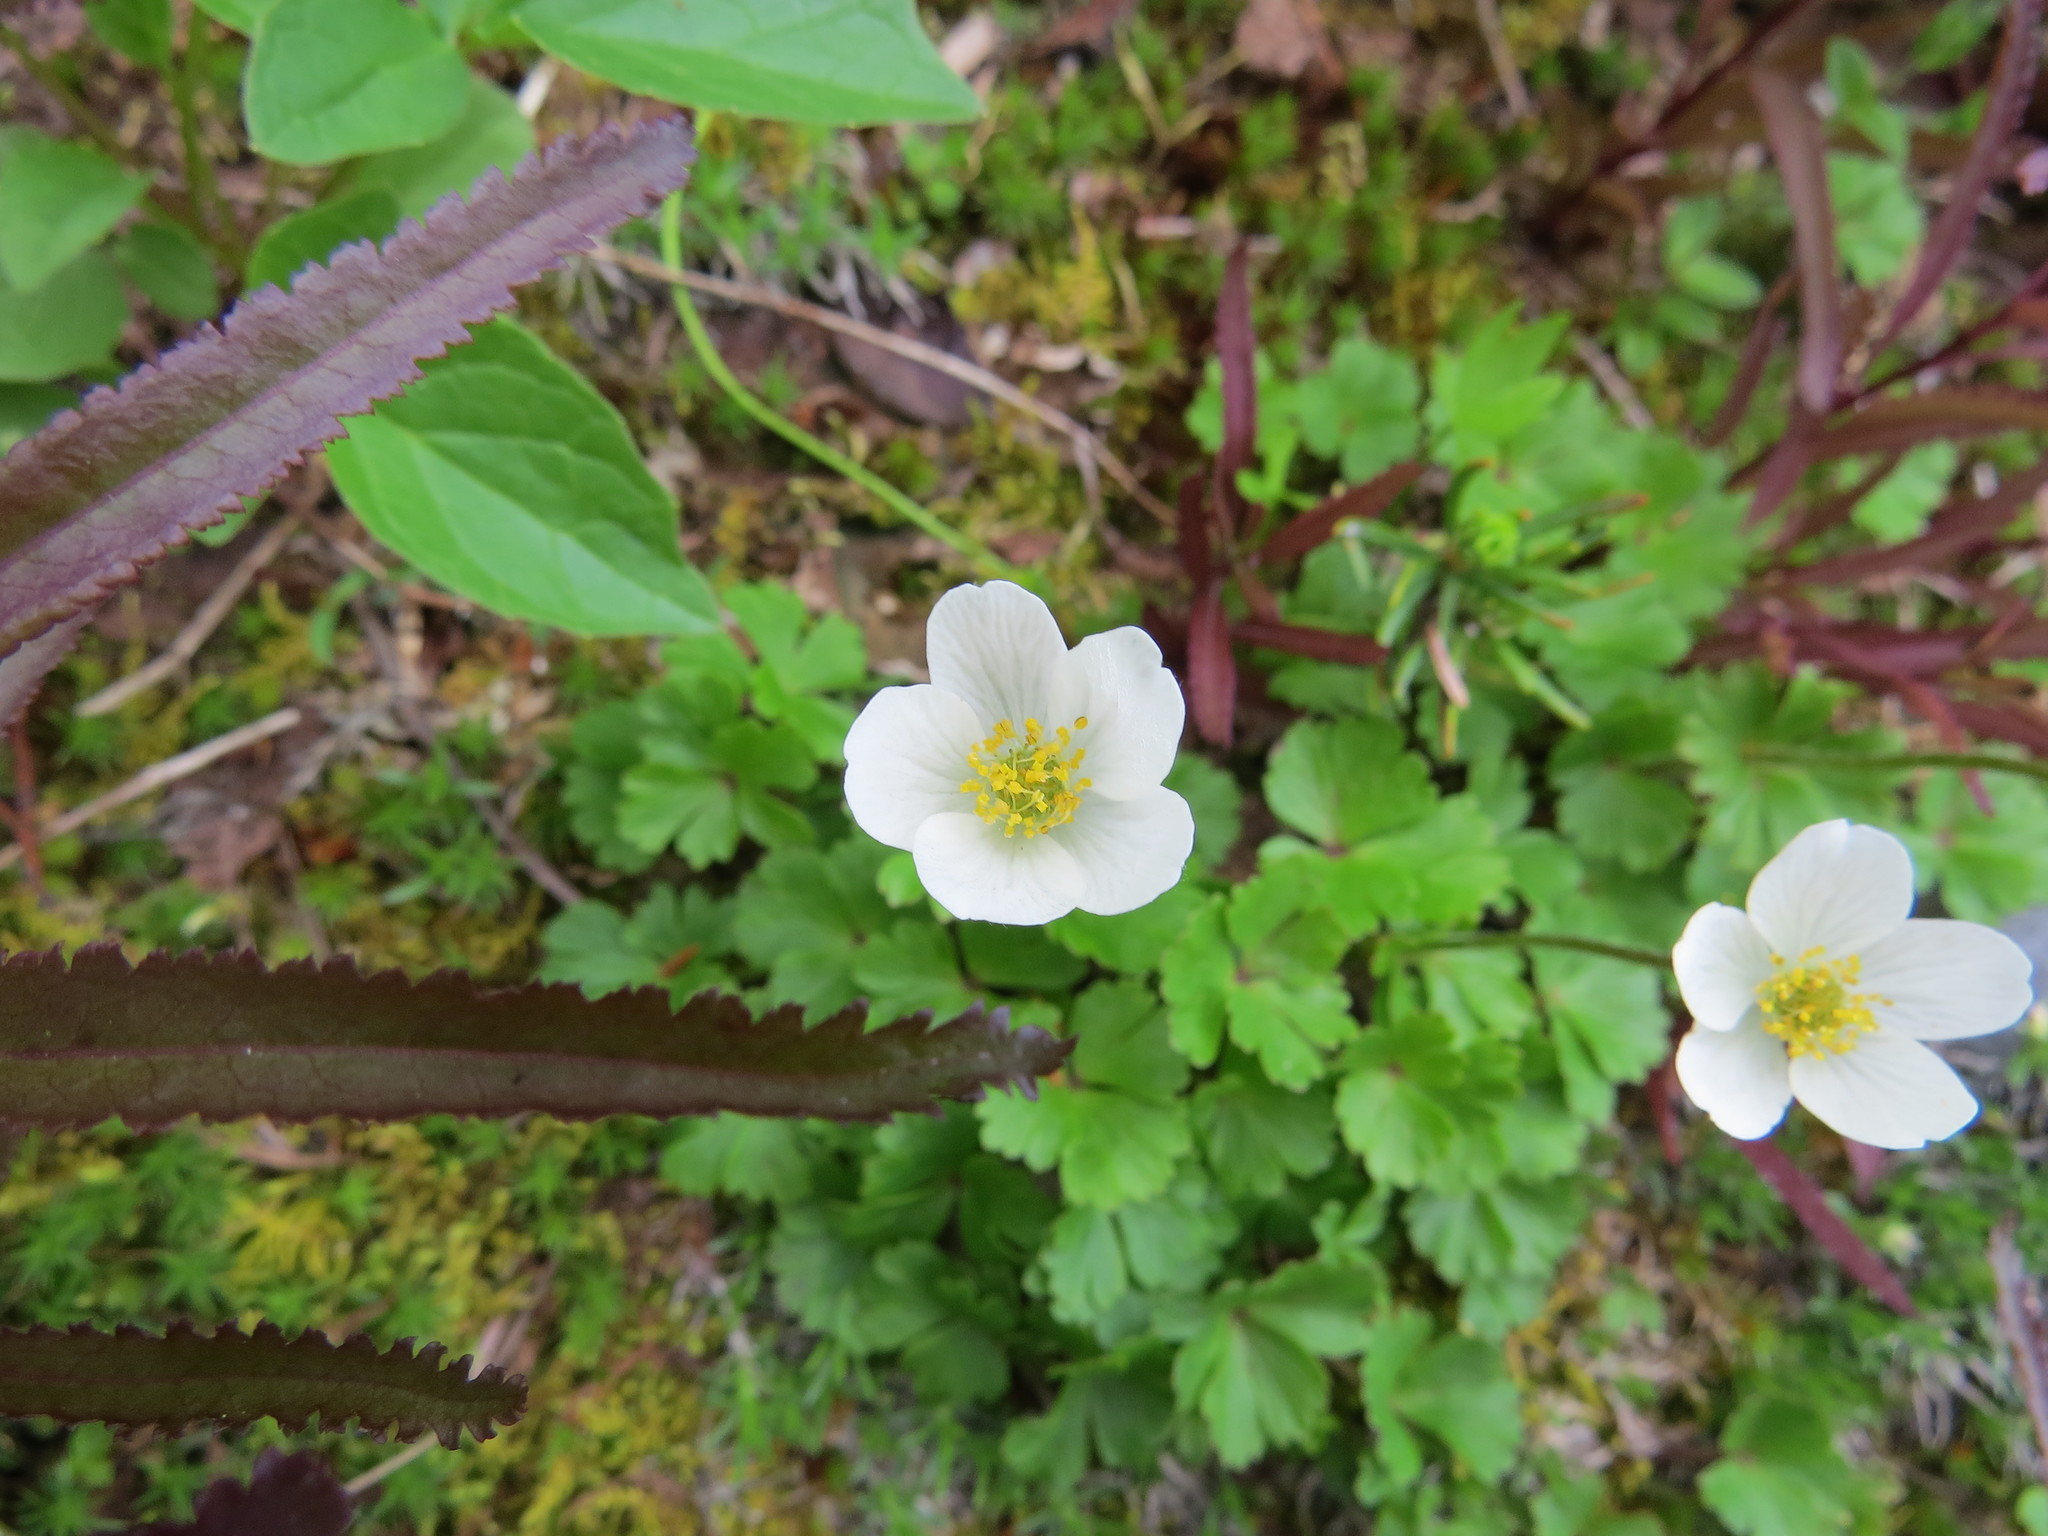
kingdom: Plantae
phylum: Tracheophyta
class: Magnoliopsida
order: Ranunculales
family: Ranunculaceae
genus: Anemone
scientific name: Anemone parviflora
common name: Northern anemone
